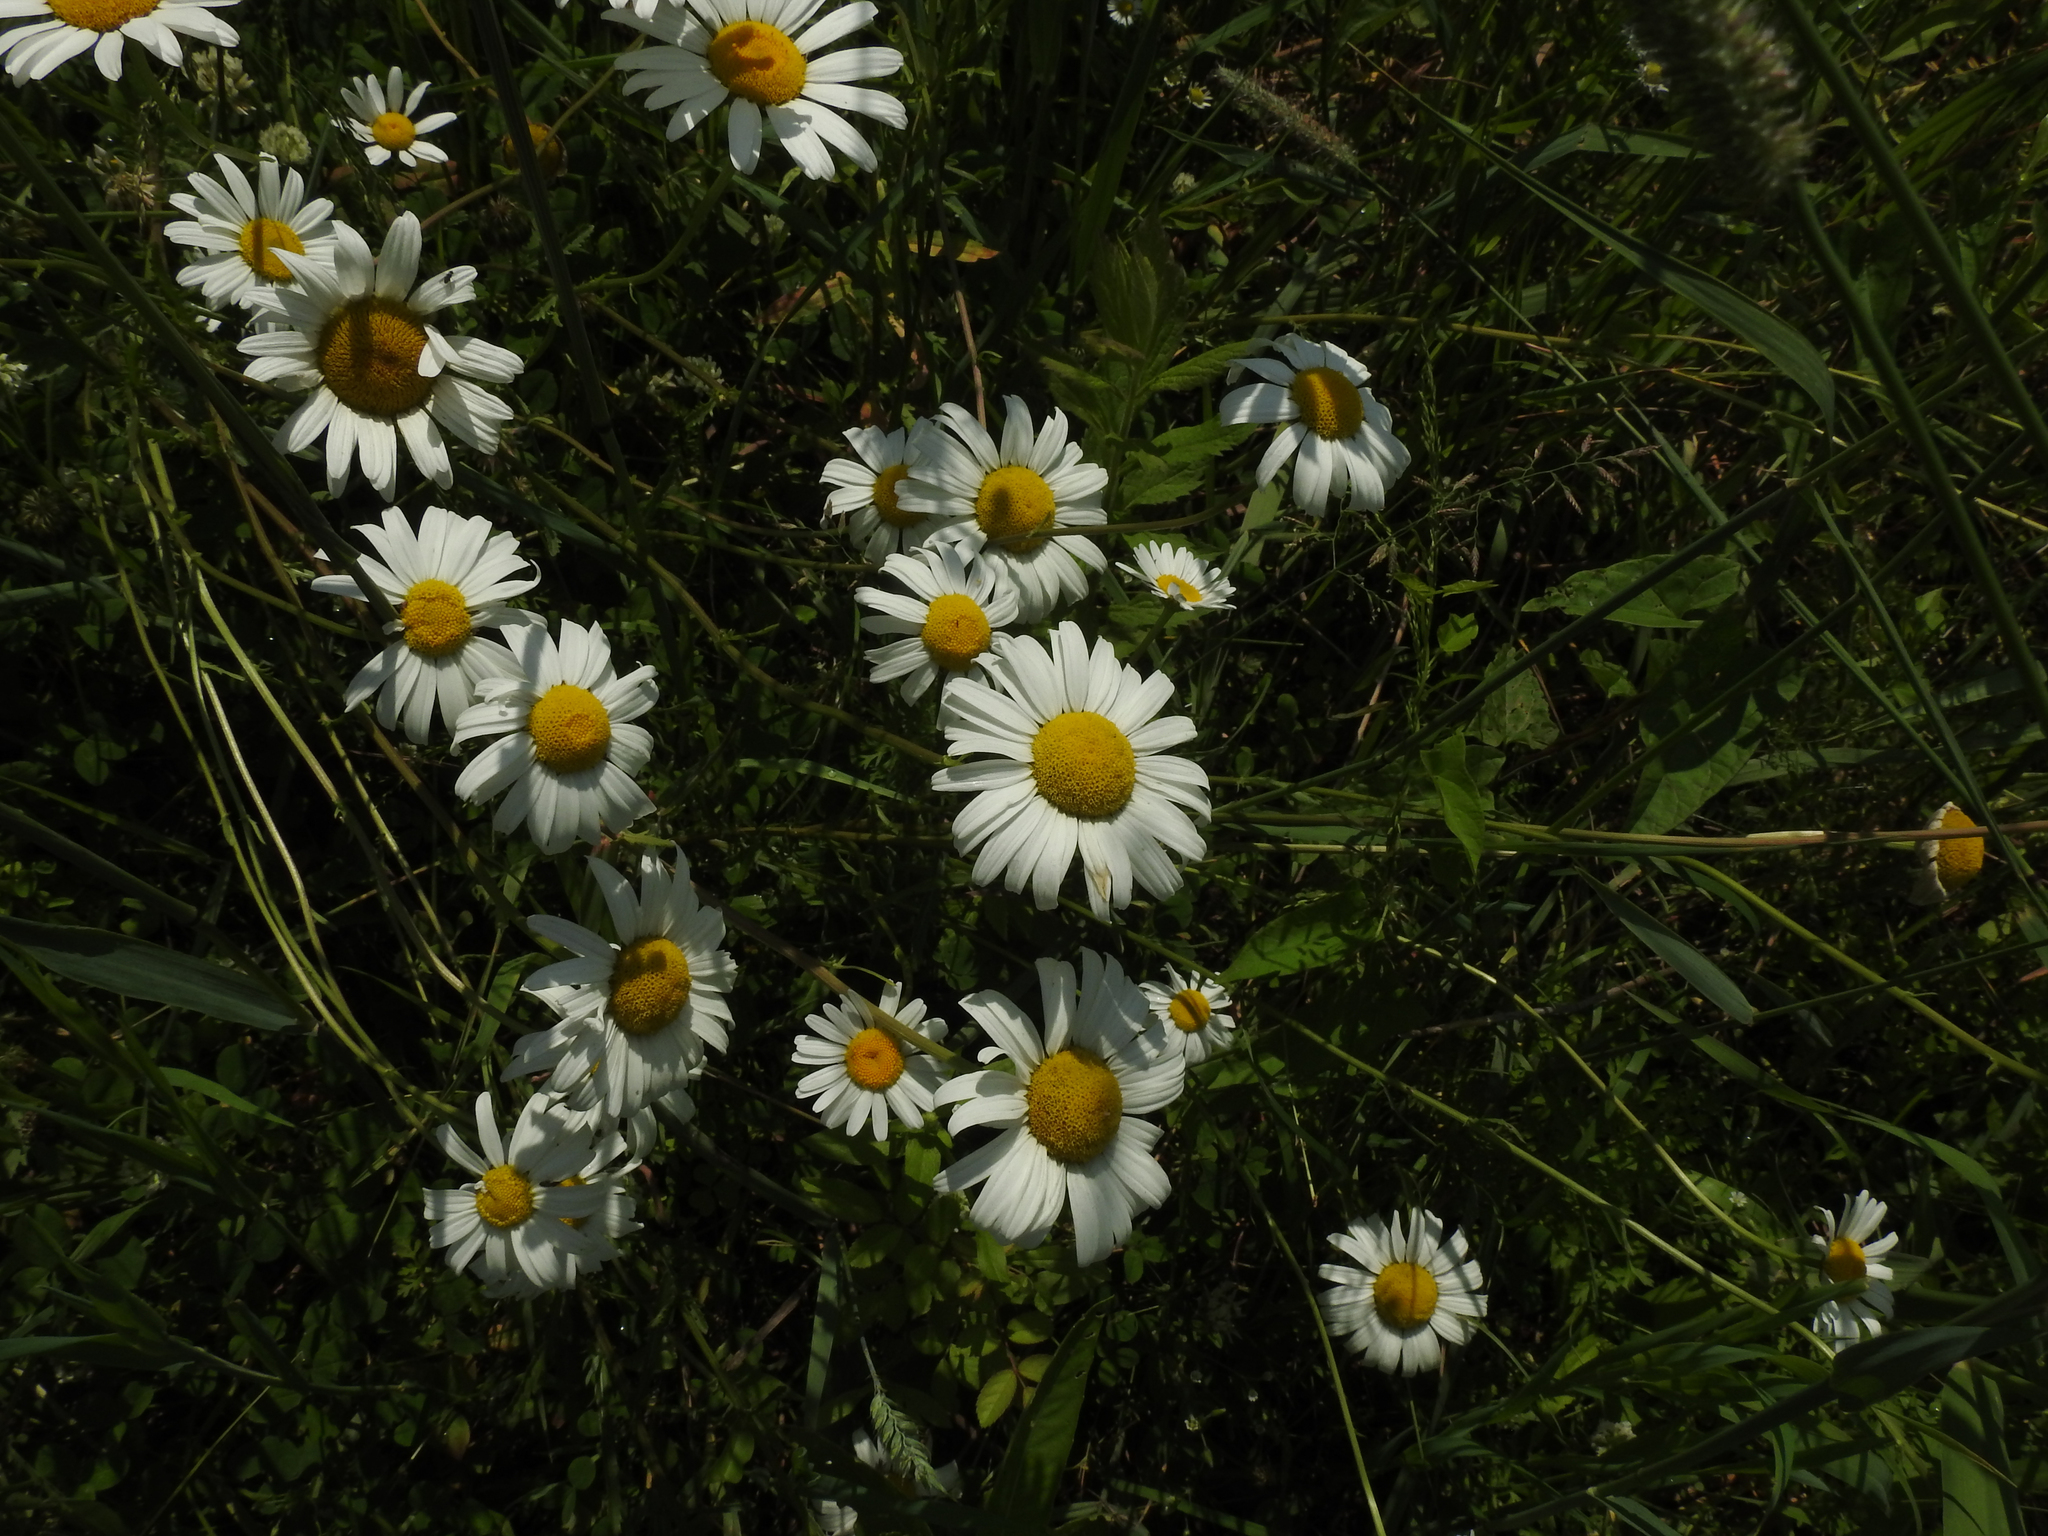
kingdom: Plantae
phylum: Tracheophyta
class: Magnoliopsida
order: Asterales
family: Asteraceae
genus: Leucanthemum
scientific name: Leucanthemum vulgare
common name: Oxeye daisy
